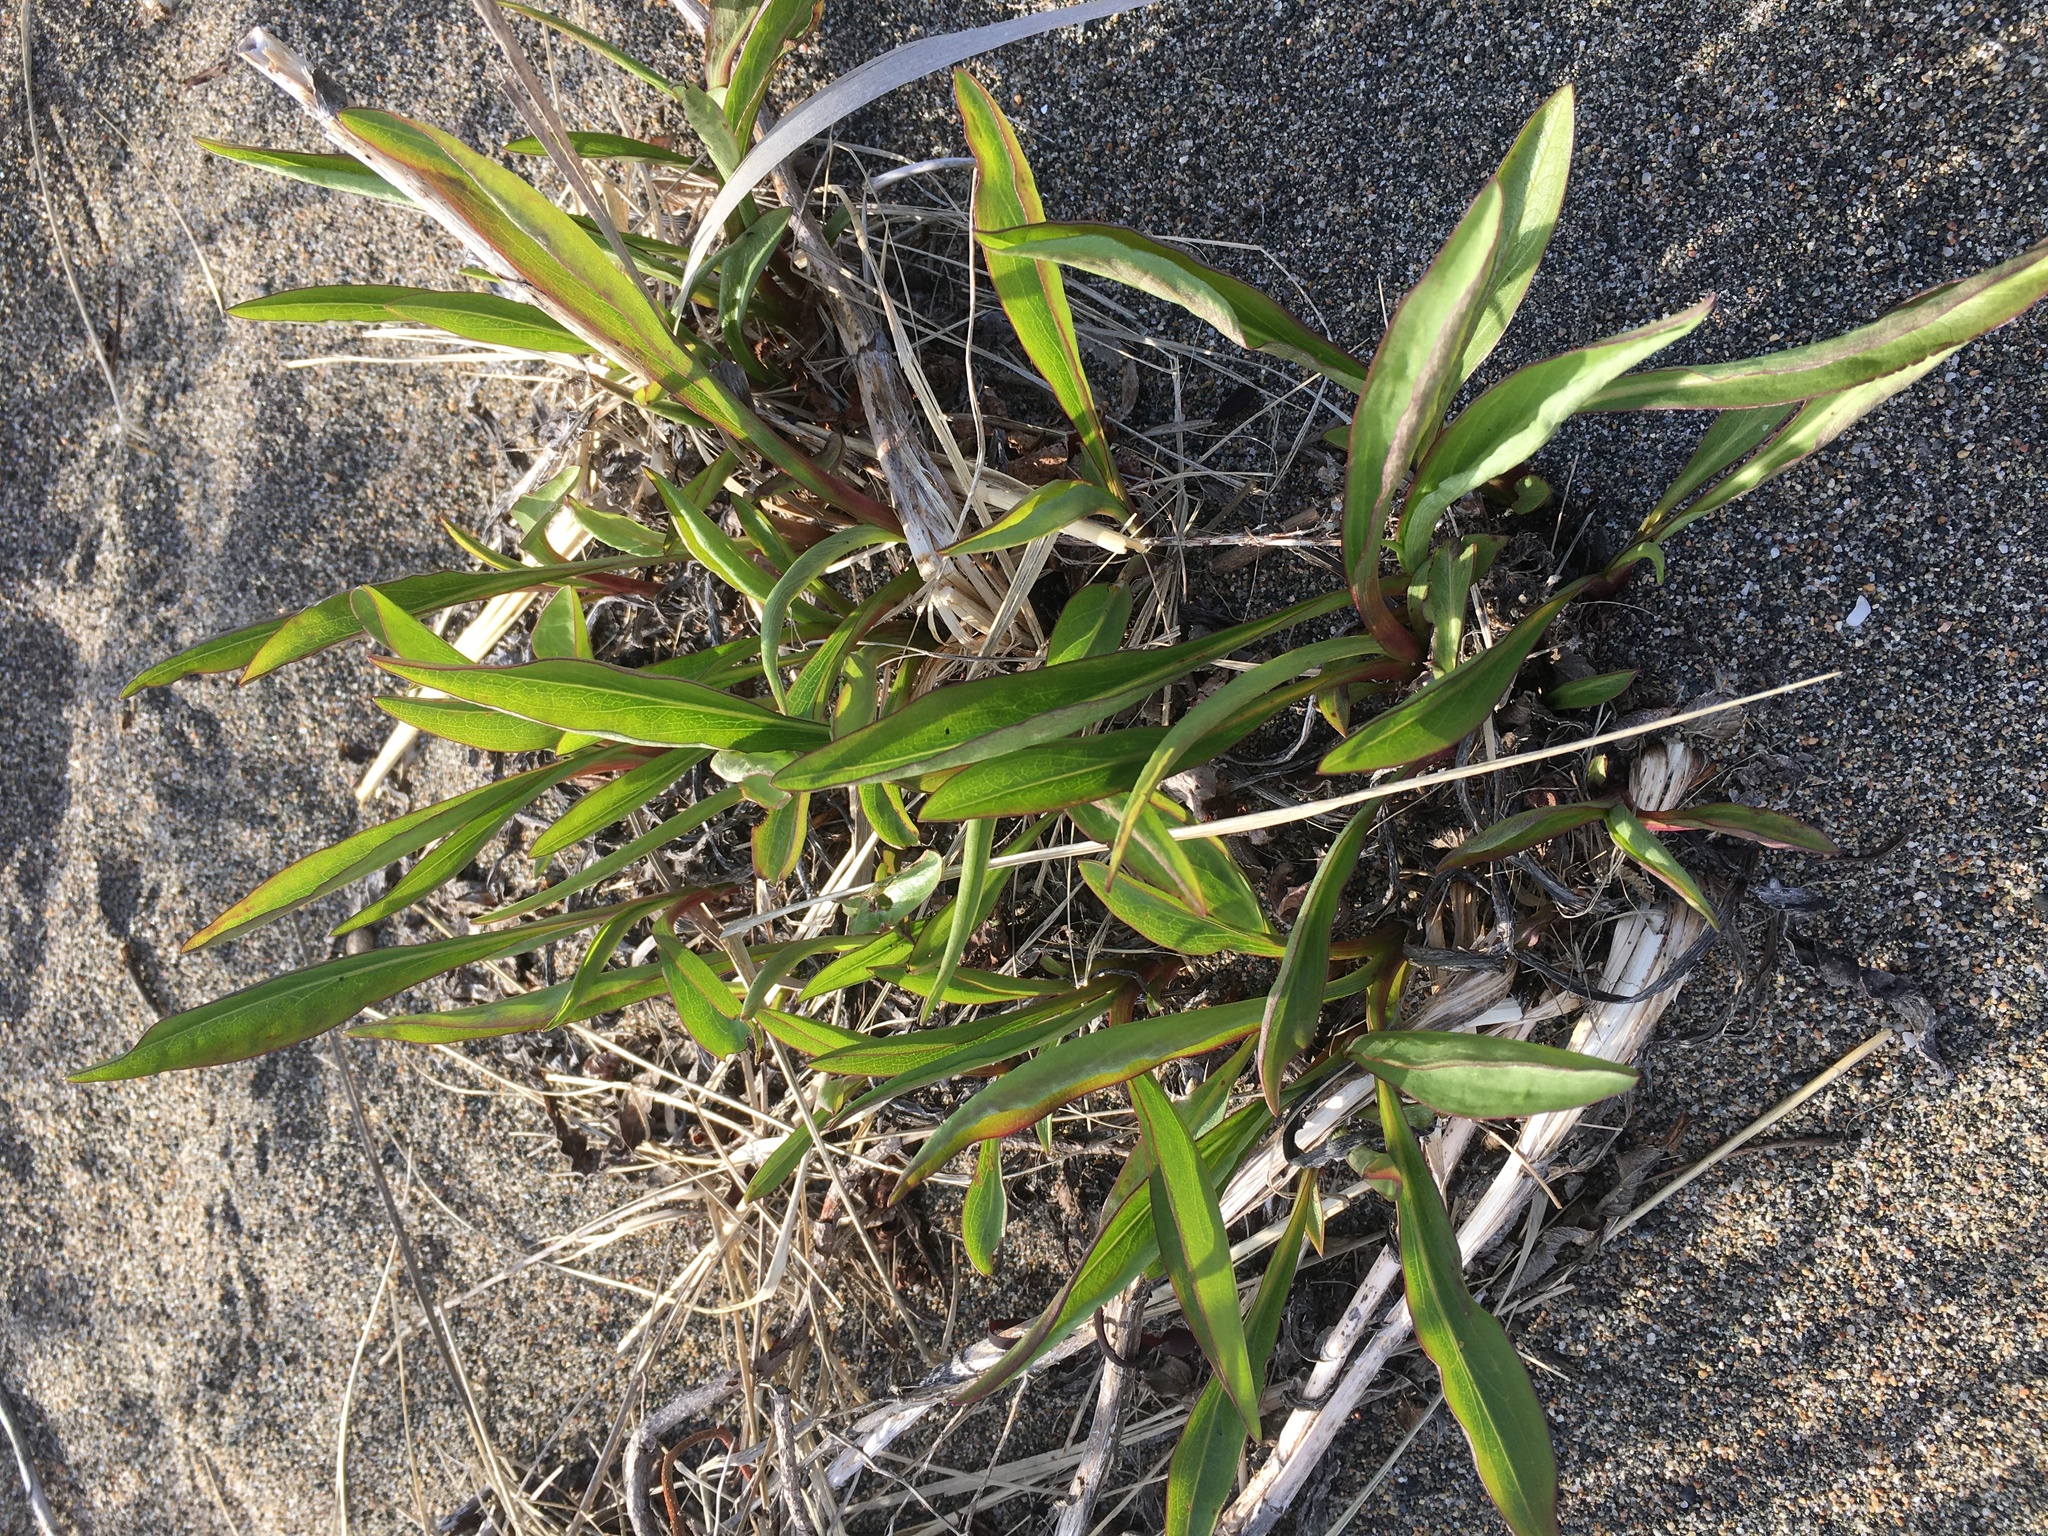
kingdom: Plantae
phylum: Tracheophyta
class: Magnoliopsida
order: Asterales
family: Asteraceae
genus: Solidago
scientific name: Solidago sempervirens
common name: Salt-marsh goldenrod
